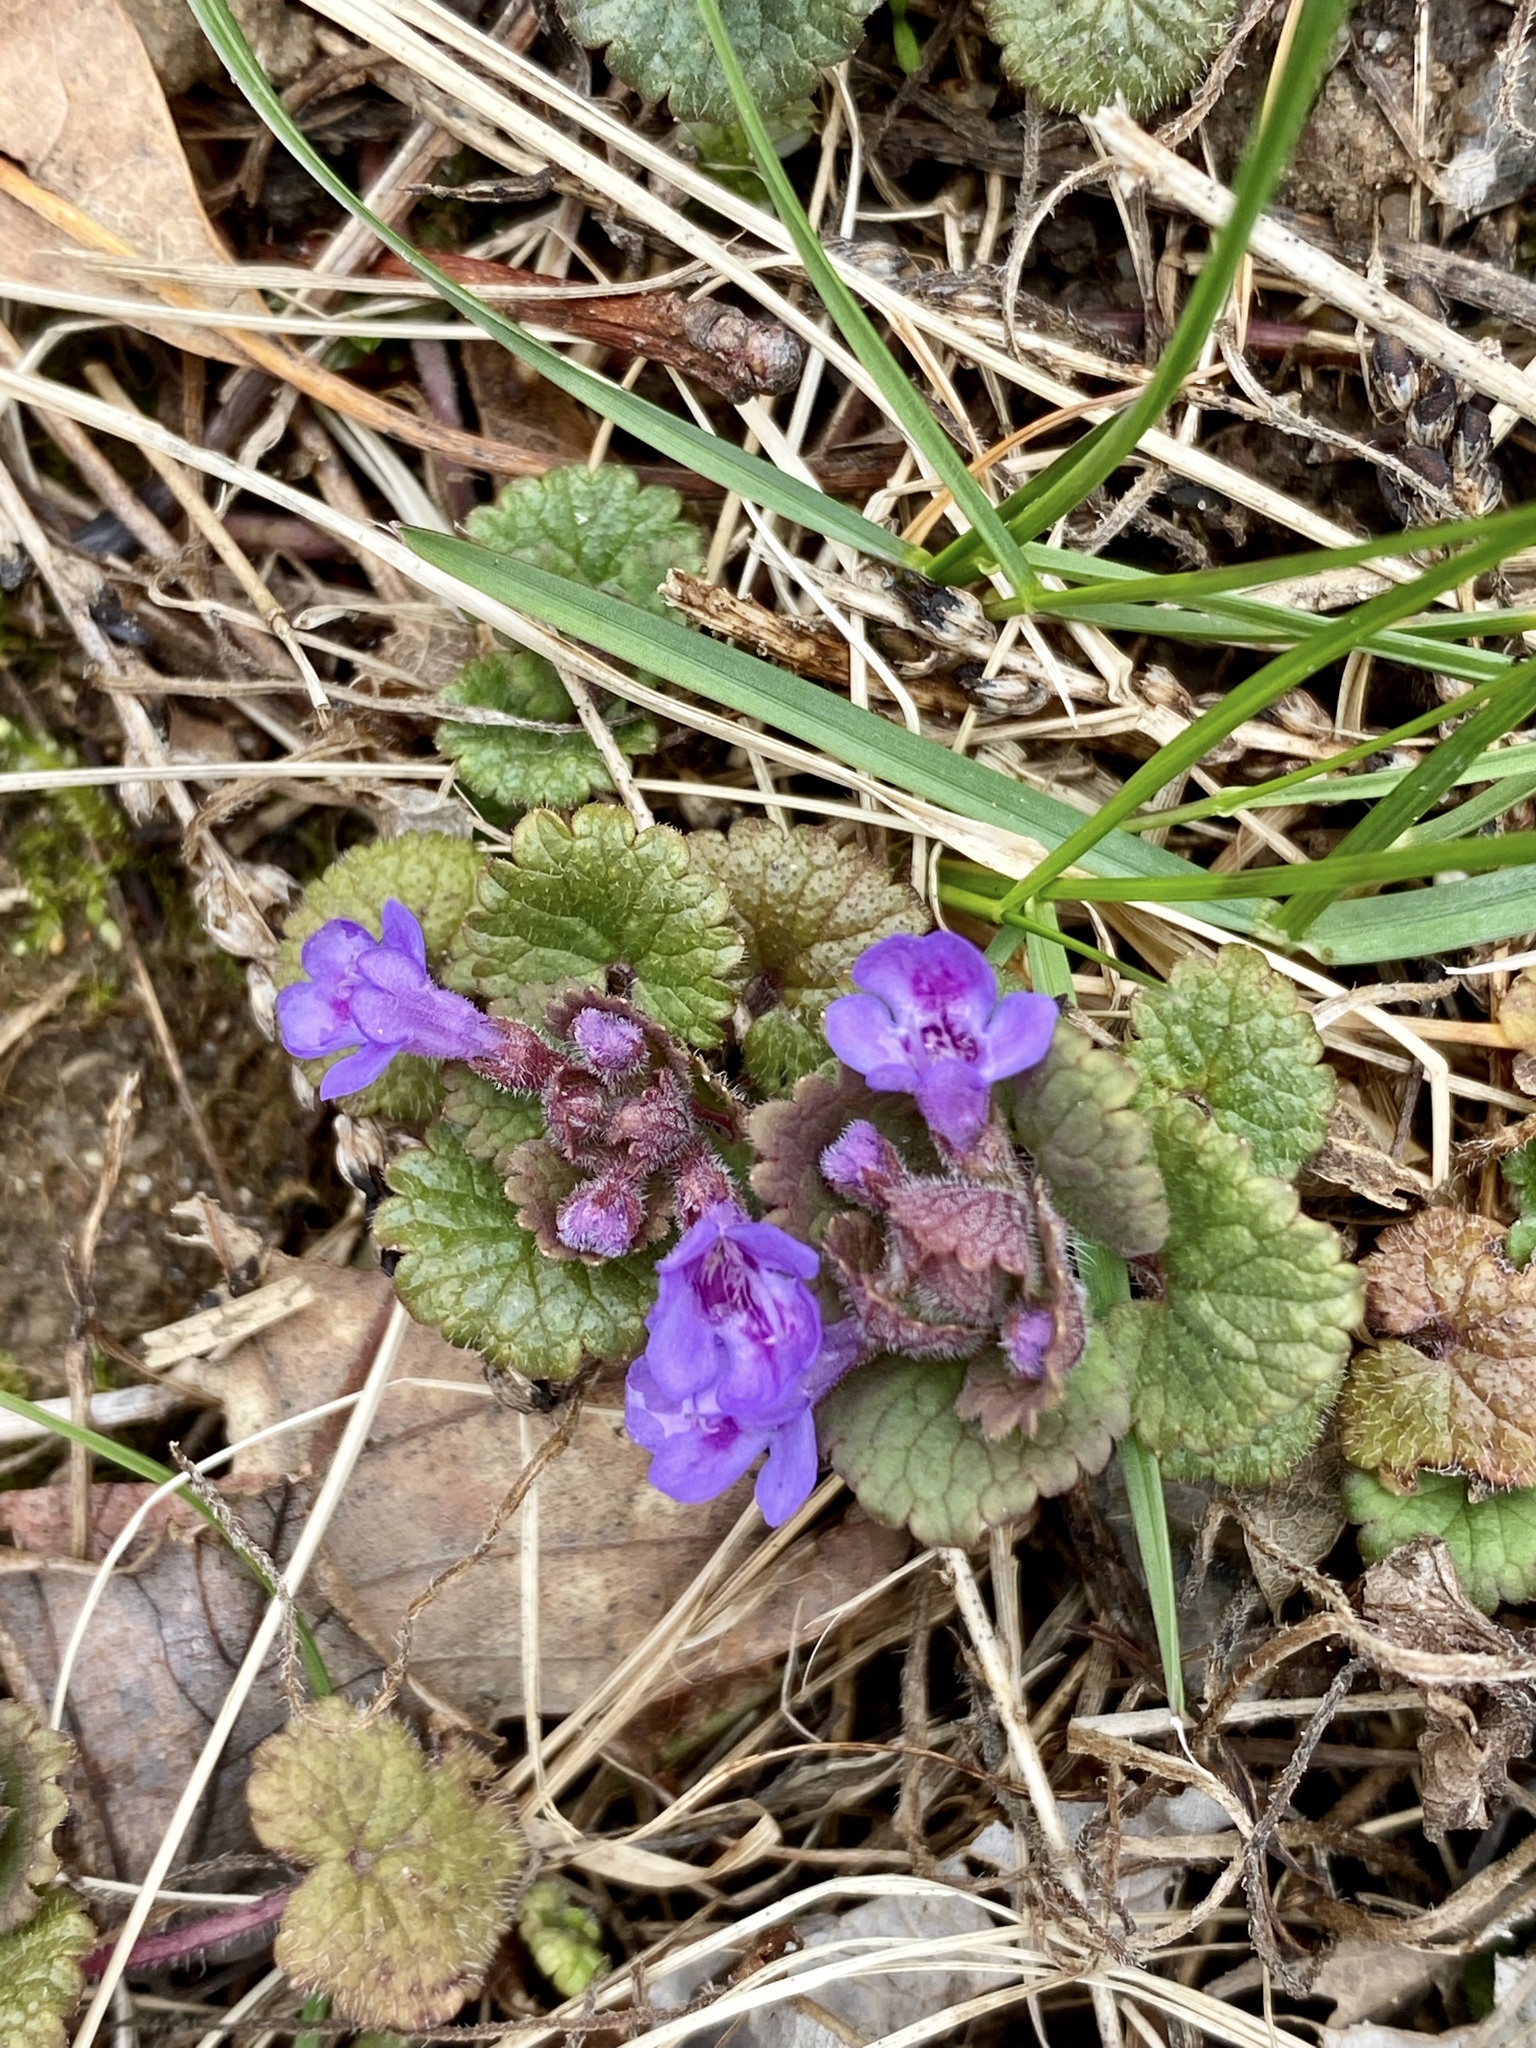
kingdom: Plantae
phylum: Tracheophyta
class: Magnoliopsida
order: Lamiales
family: Lamiaceae
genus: Glechoma
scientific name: Glechoma hederacea
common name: Ground ivy
